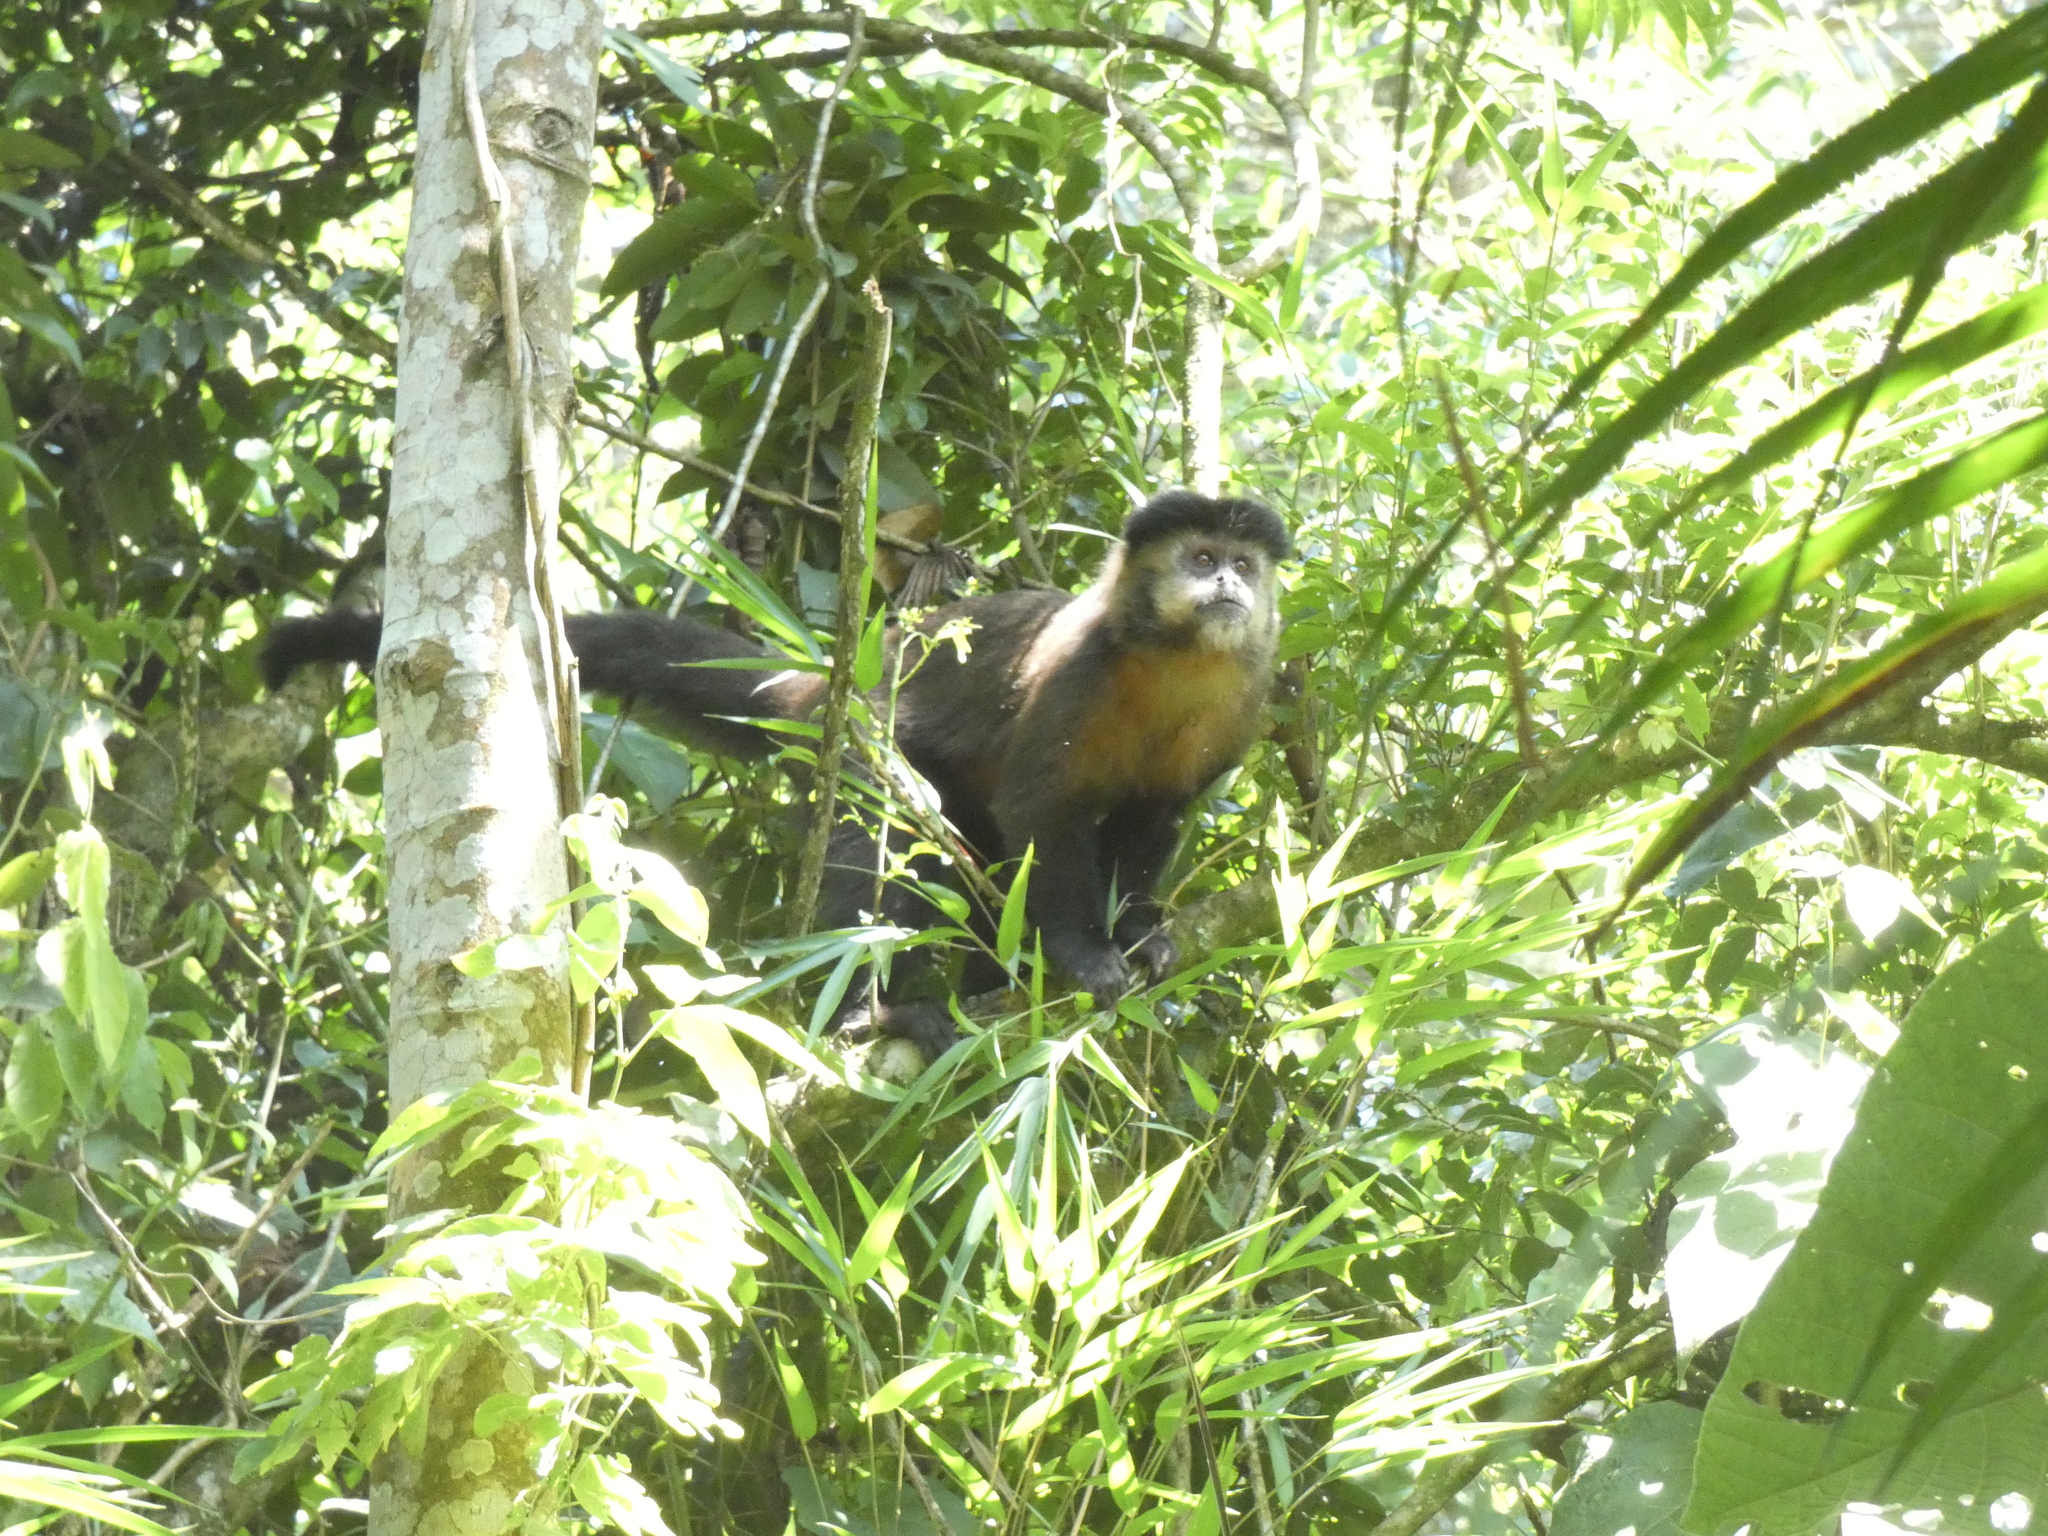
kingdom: Animalia
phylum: Chordata
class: Mammalia
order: Primates
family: Cebidae
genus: Sapajus
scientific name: Sapajus nigritus
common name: Black capuchin
